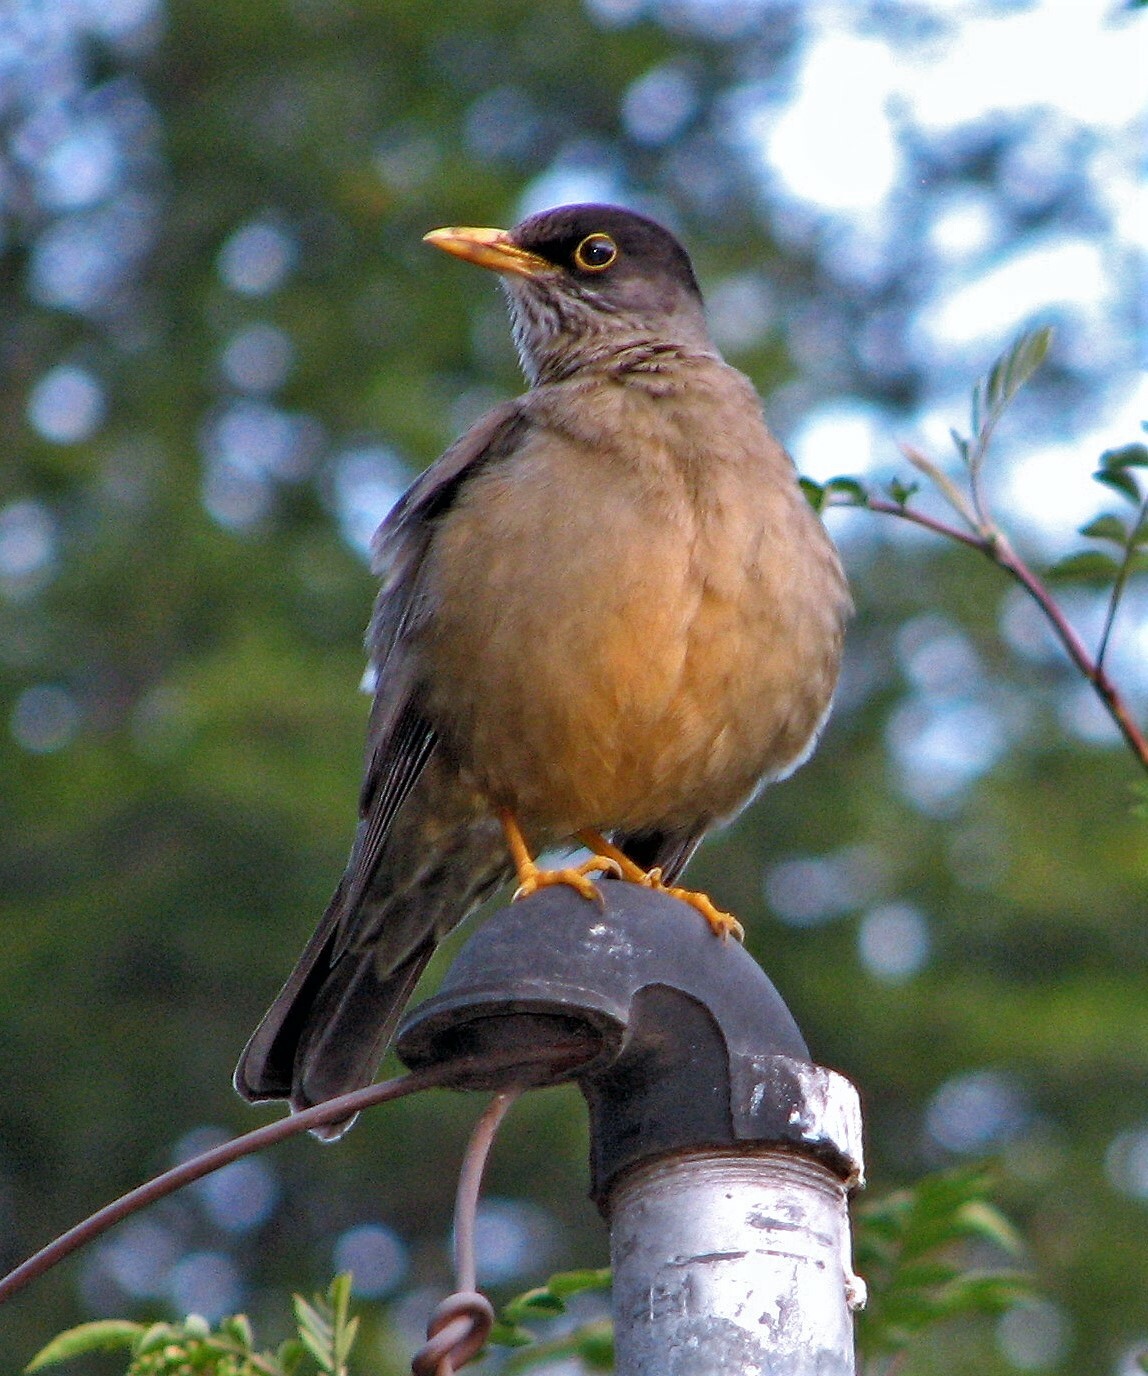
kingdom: Animalia
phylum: Chordata
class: Aves
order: Passeriformes
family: Turdidae
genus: Turdus
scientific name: Turdus falcklandii
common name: Austral thrush
